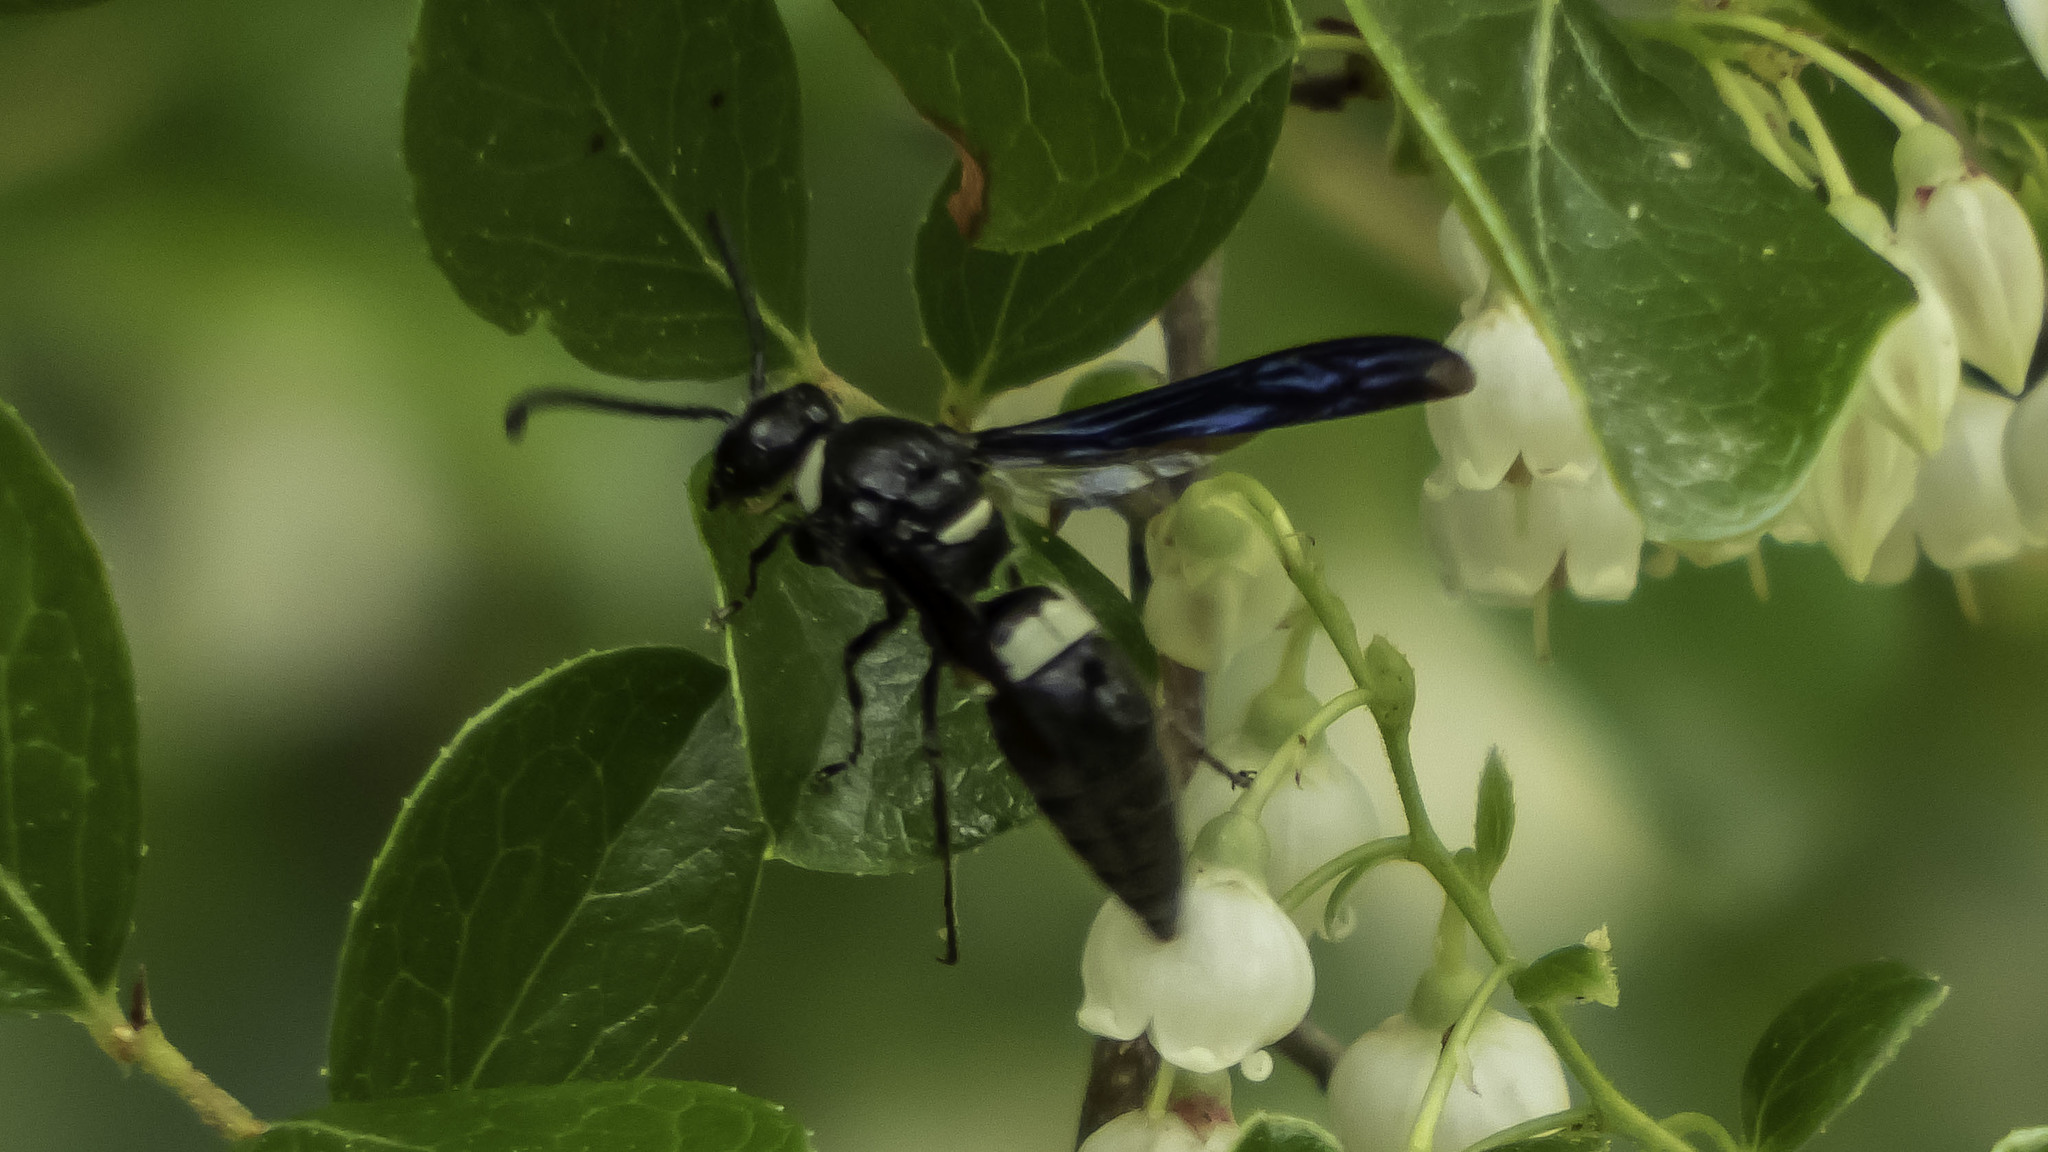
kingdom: Animalia
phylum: Arthropoda
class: Insecta
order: Hymenoptera
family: Eumenidae
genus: Monobia
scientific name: Monobia quadridens
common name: Four-toothed mason wasp
